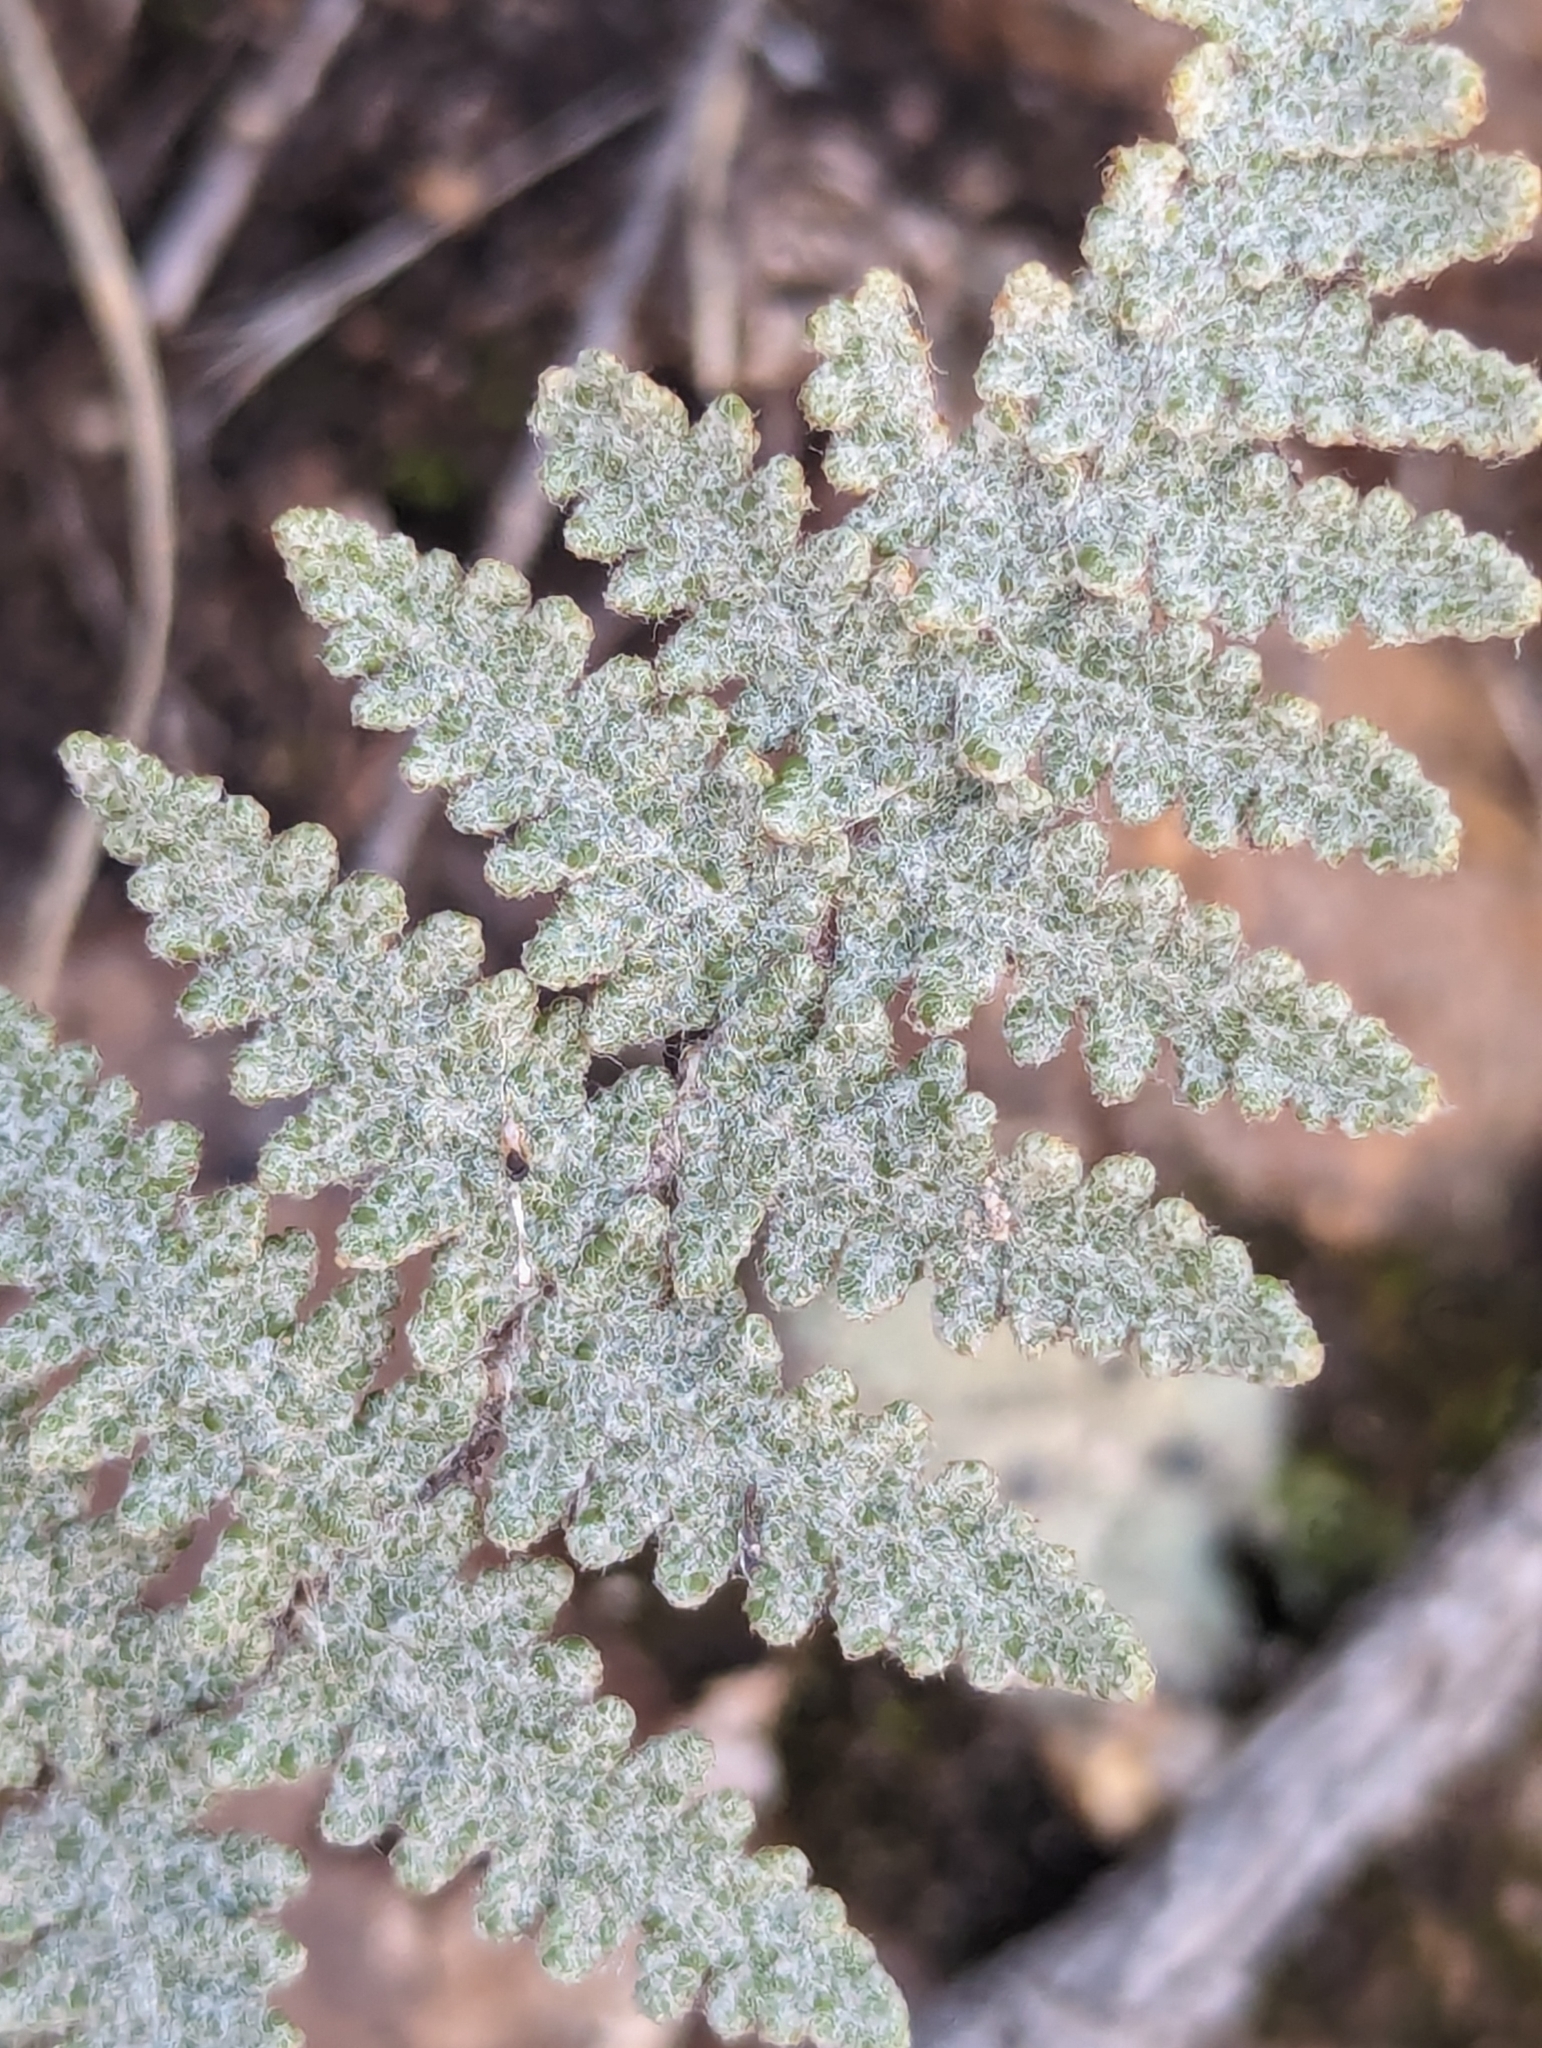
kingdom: Plantae
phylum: Tracheophyta
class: Polypodiopsida
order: Polypodiales
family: Pteridaceae
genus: Myriopteris
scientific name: Myriopteris lindheimeri
